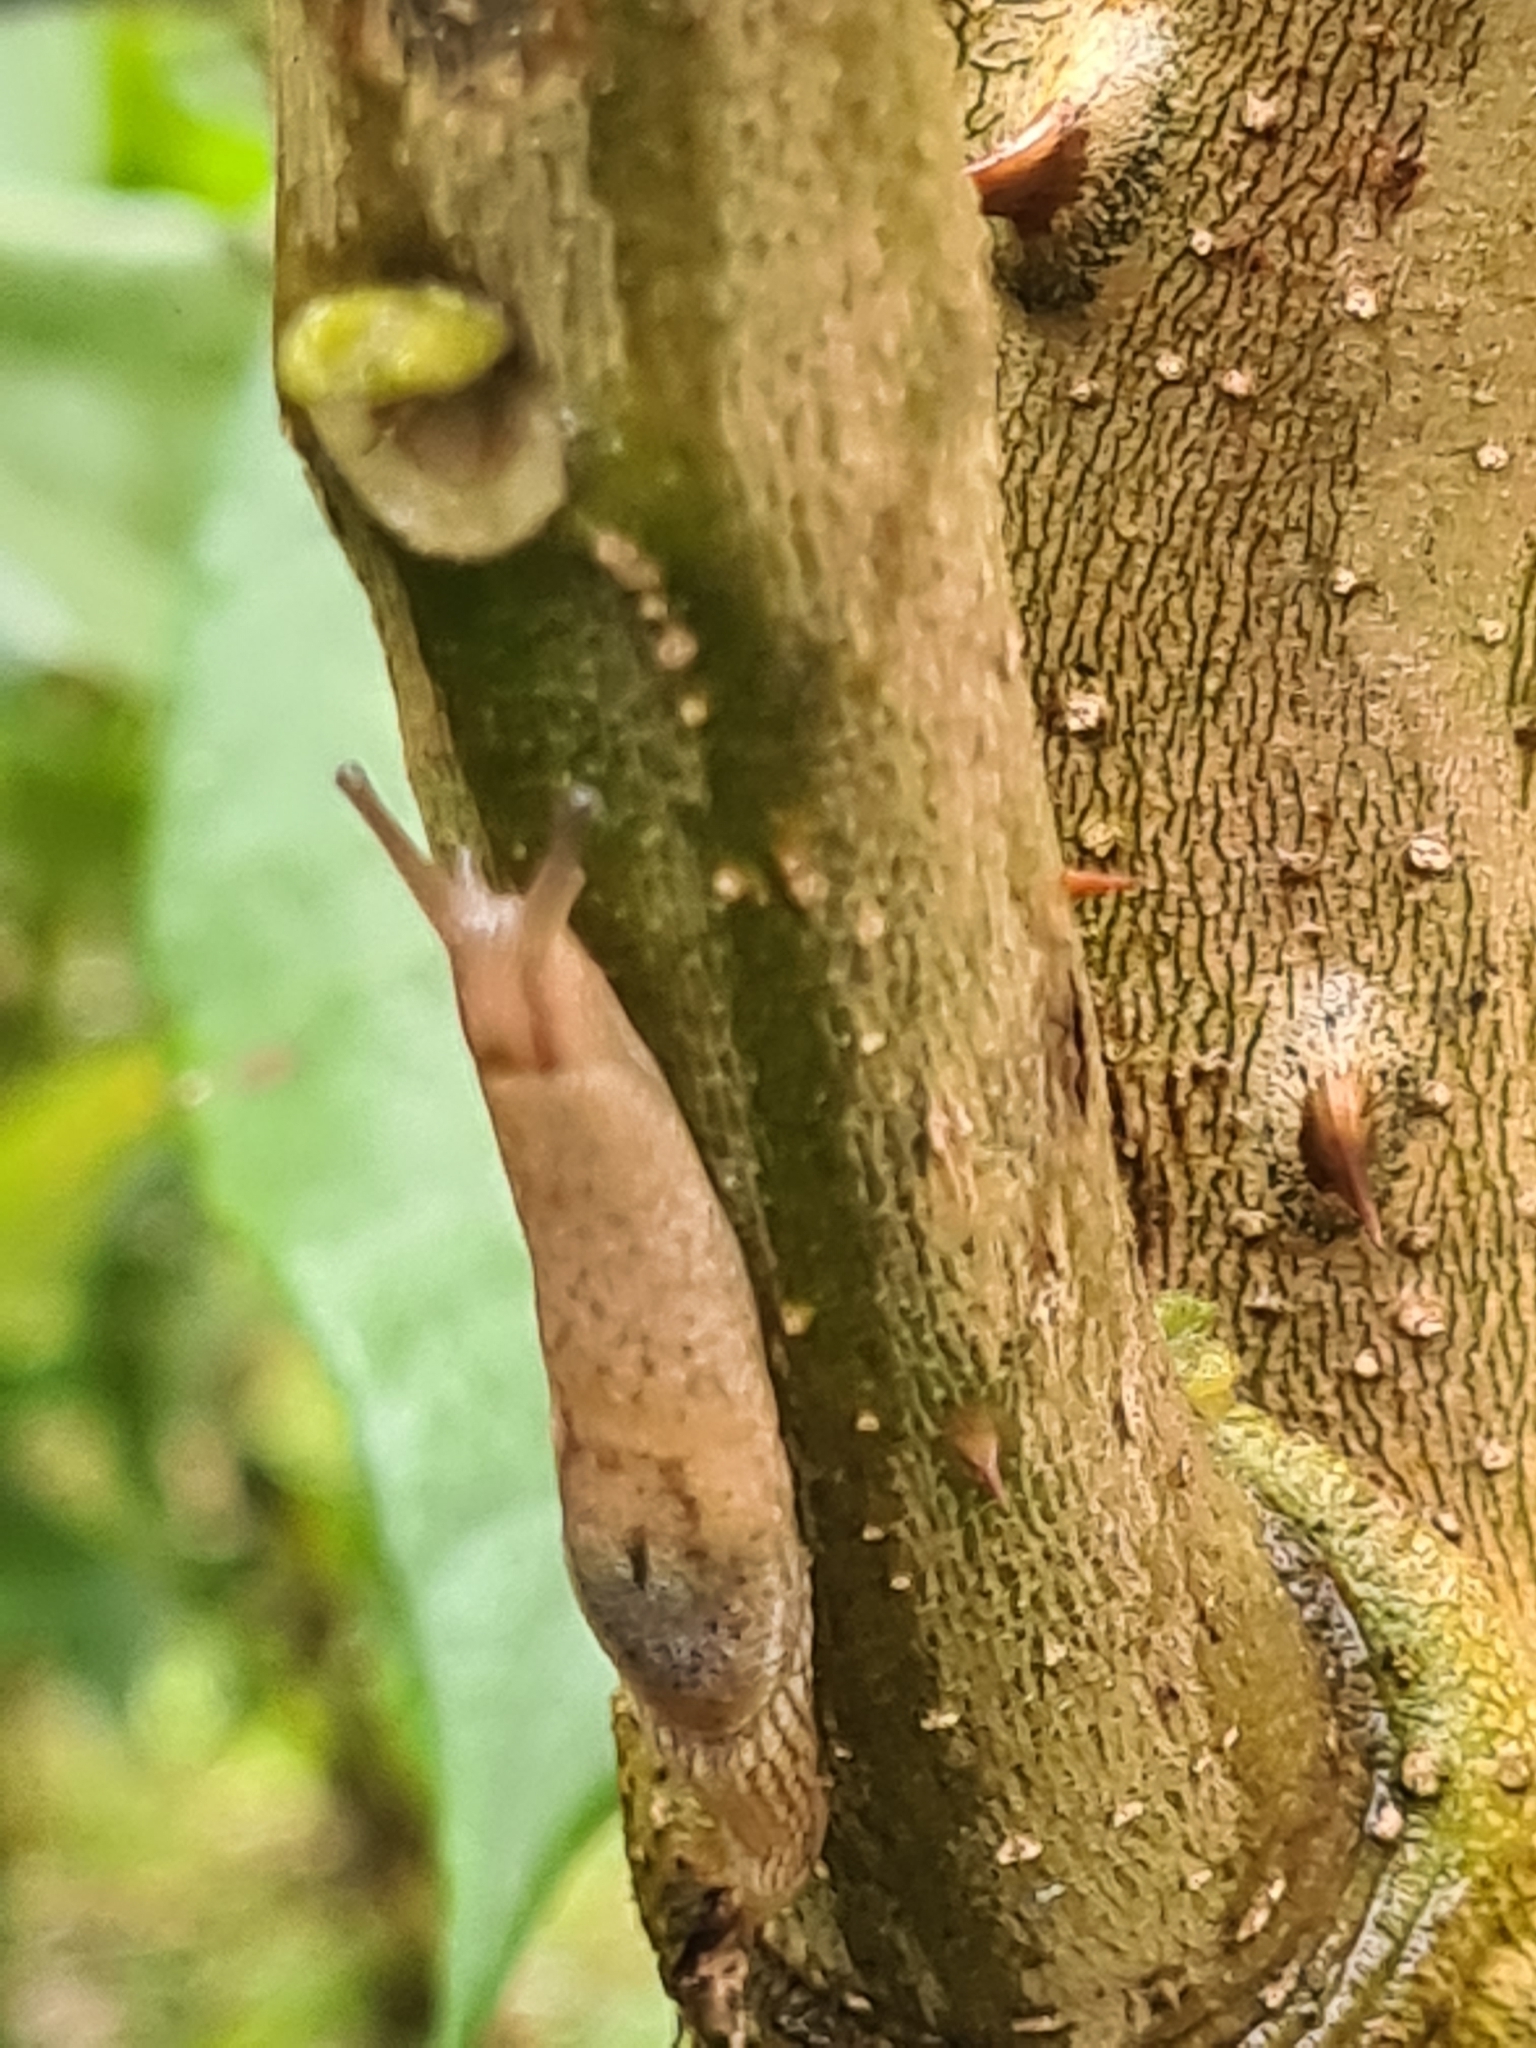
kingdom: Animalia
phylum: Mollusca
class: Gastropoda
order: Stylommatophora
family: Ariophantidae
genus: Parmarion
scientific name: Parmarion martensi
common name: Semi-slug
